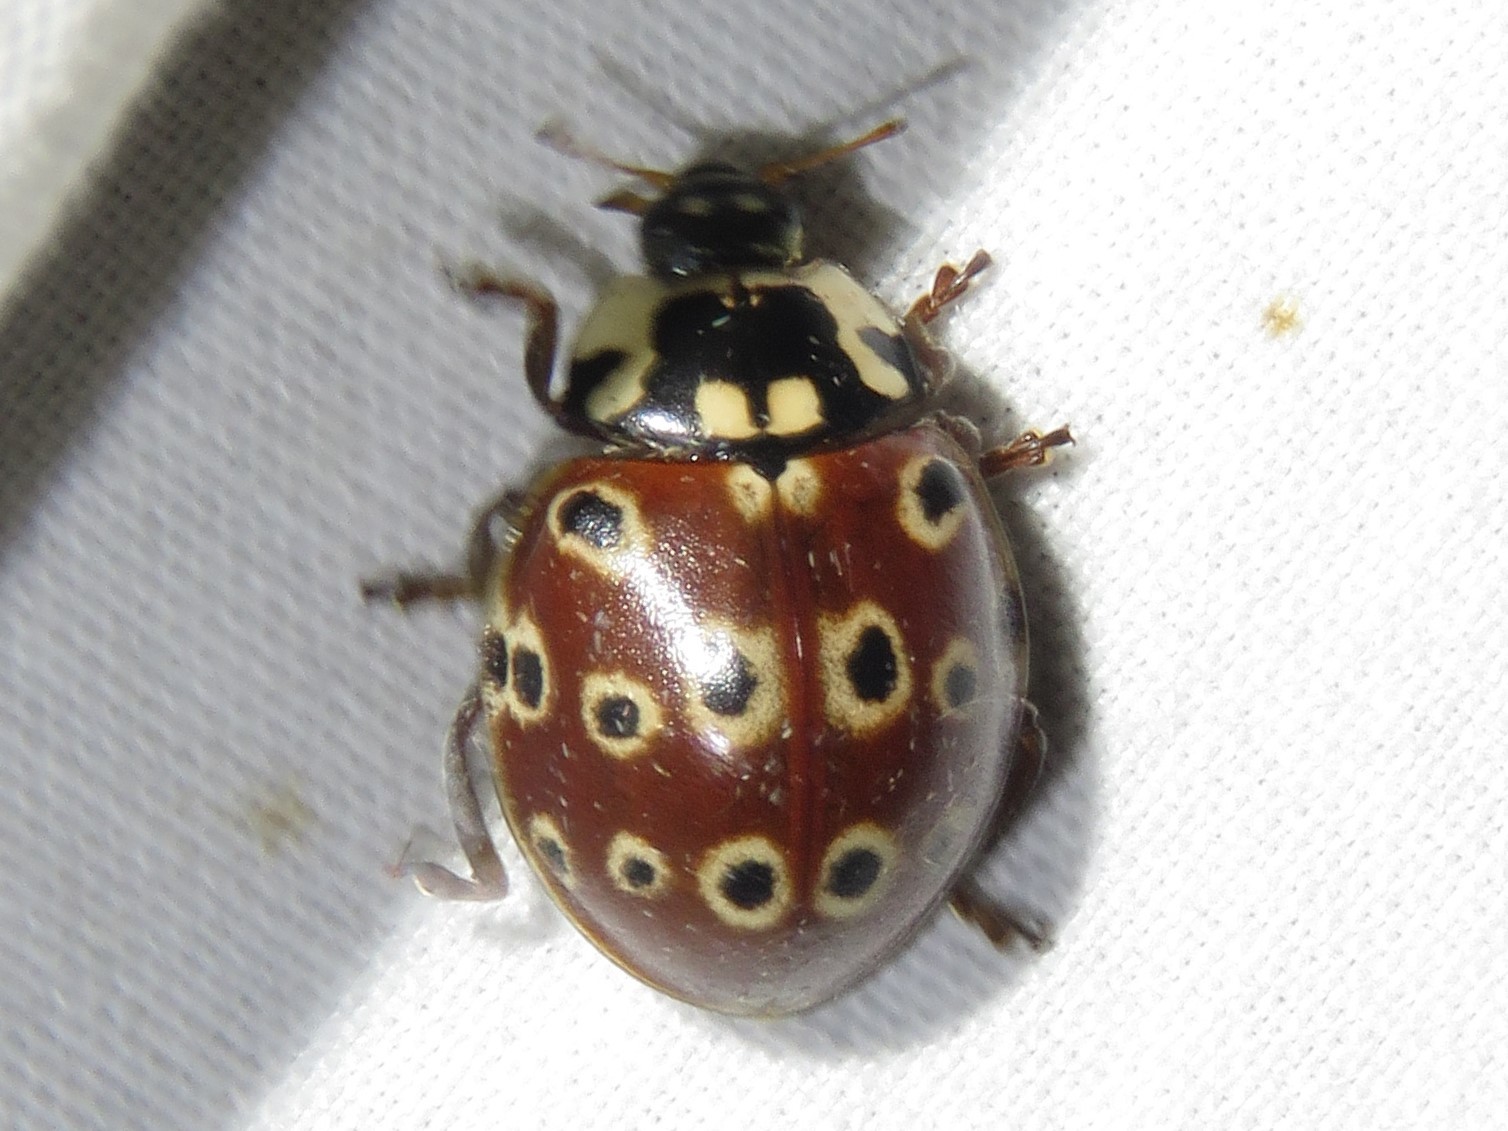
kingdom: Animalia
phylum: Arthropoda
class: Insecta
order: Coleoptera
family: Coccinellidae
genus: Anatis
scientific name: Anatis mali
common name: Eye-spotted lady beetle
